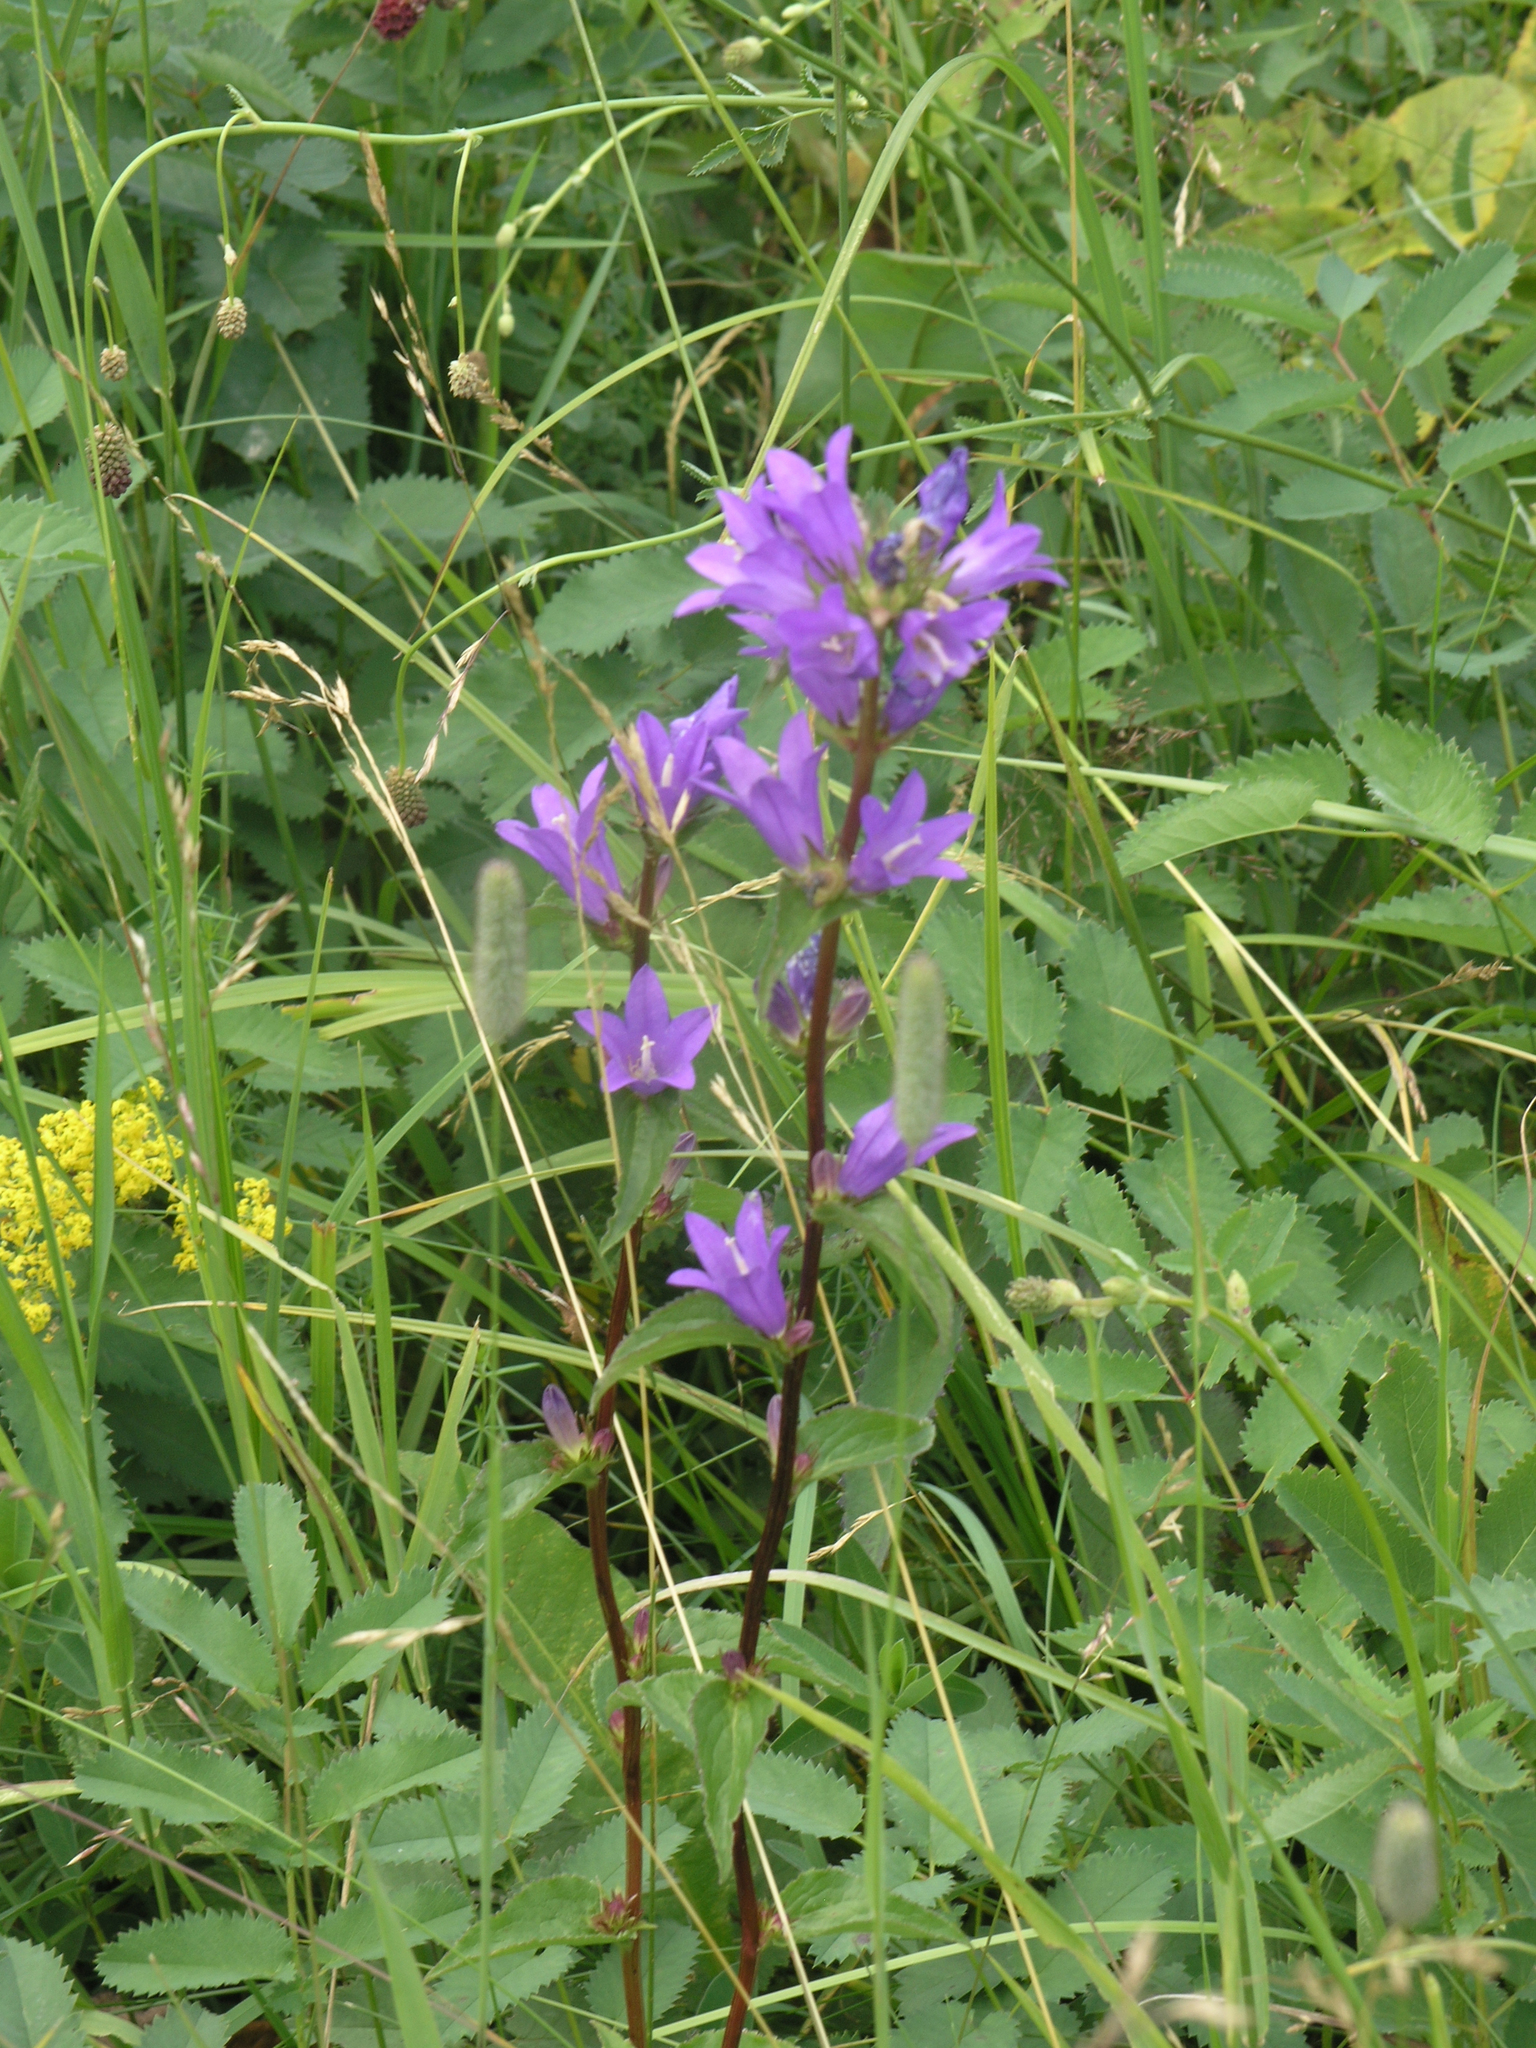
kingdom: Plantae
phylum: Tracheophyta
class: Magnoliopsida
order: Asterales
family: Campanulaceae
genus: Campanula
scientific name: Campanula glomerata
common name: Clustered bellflower
